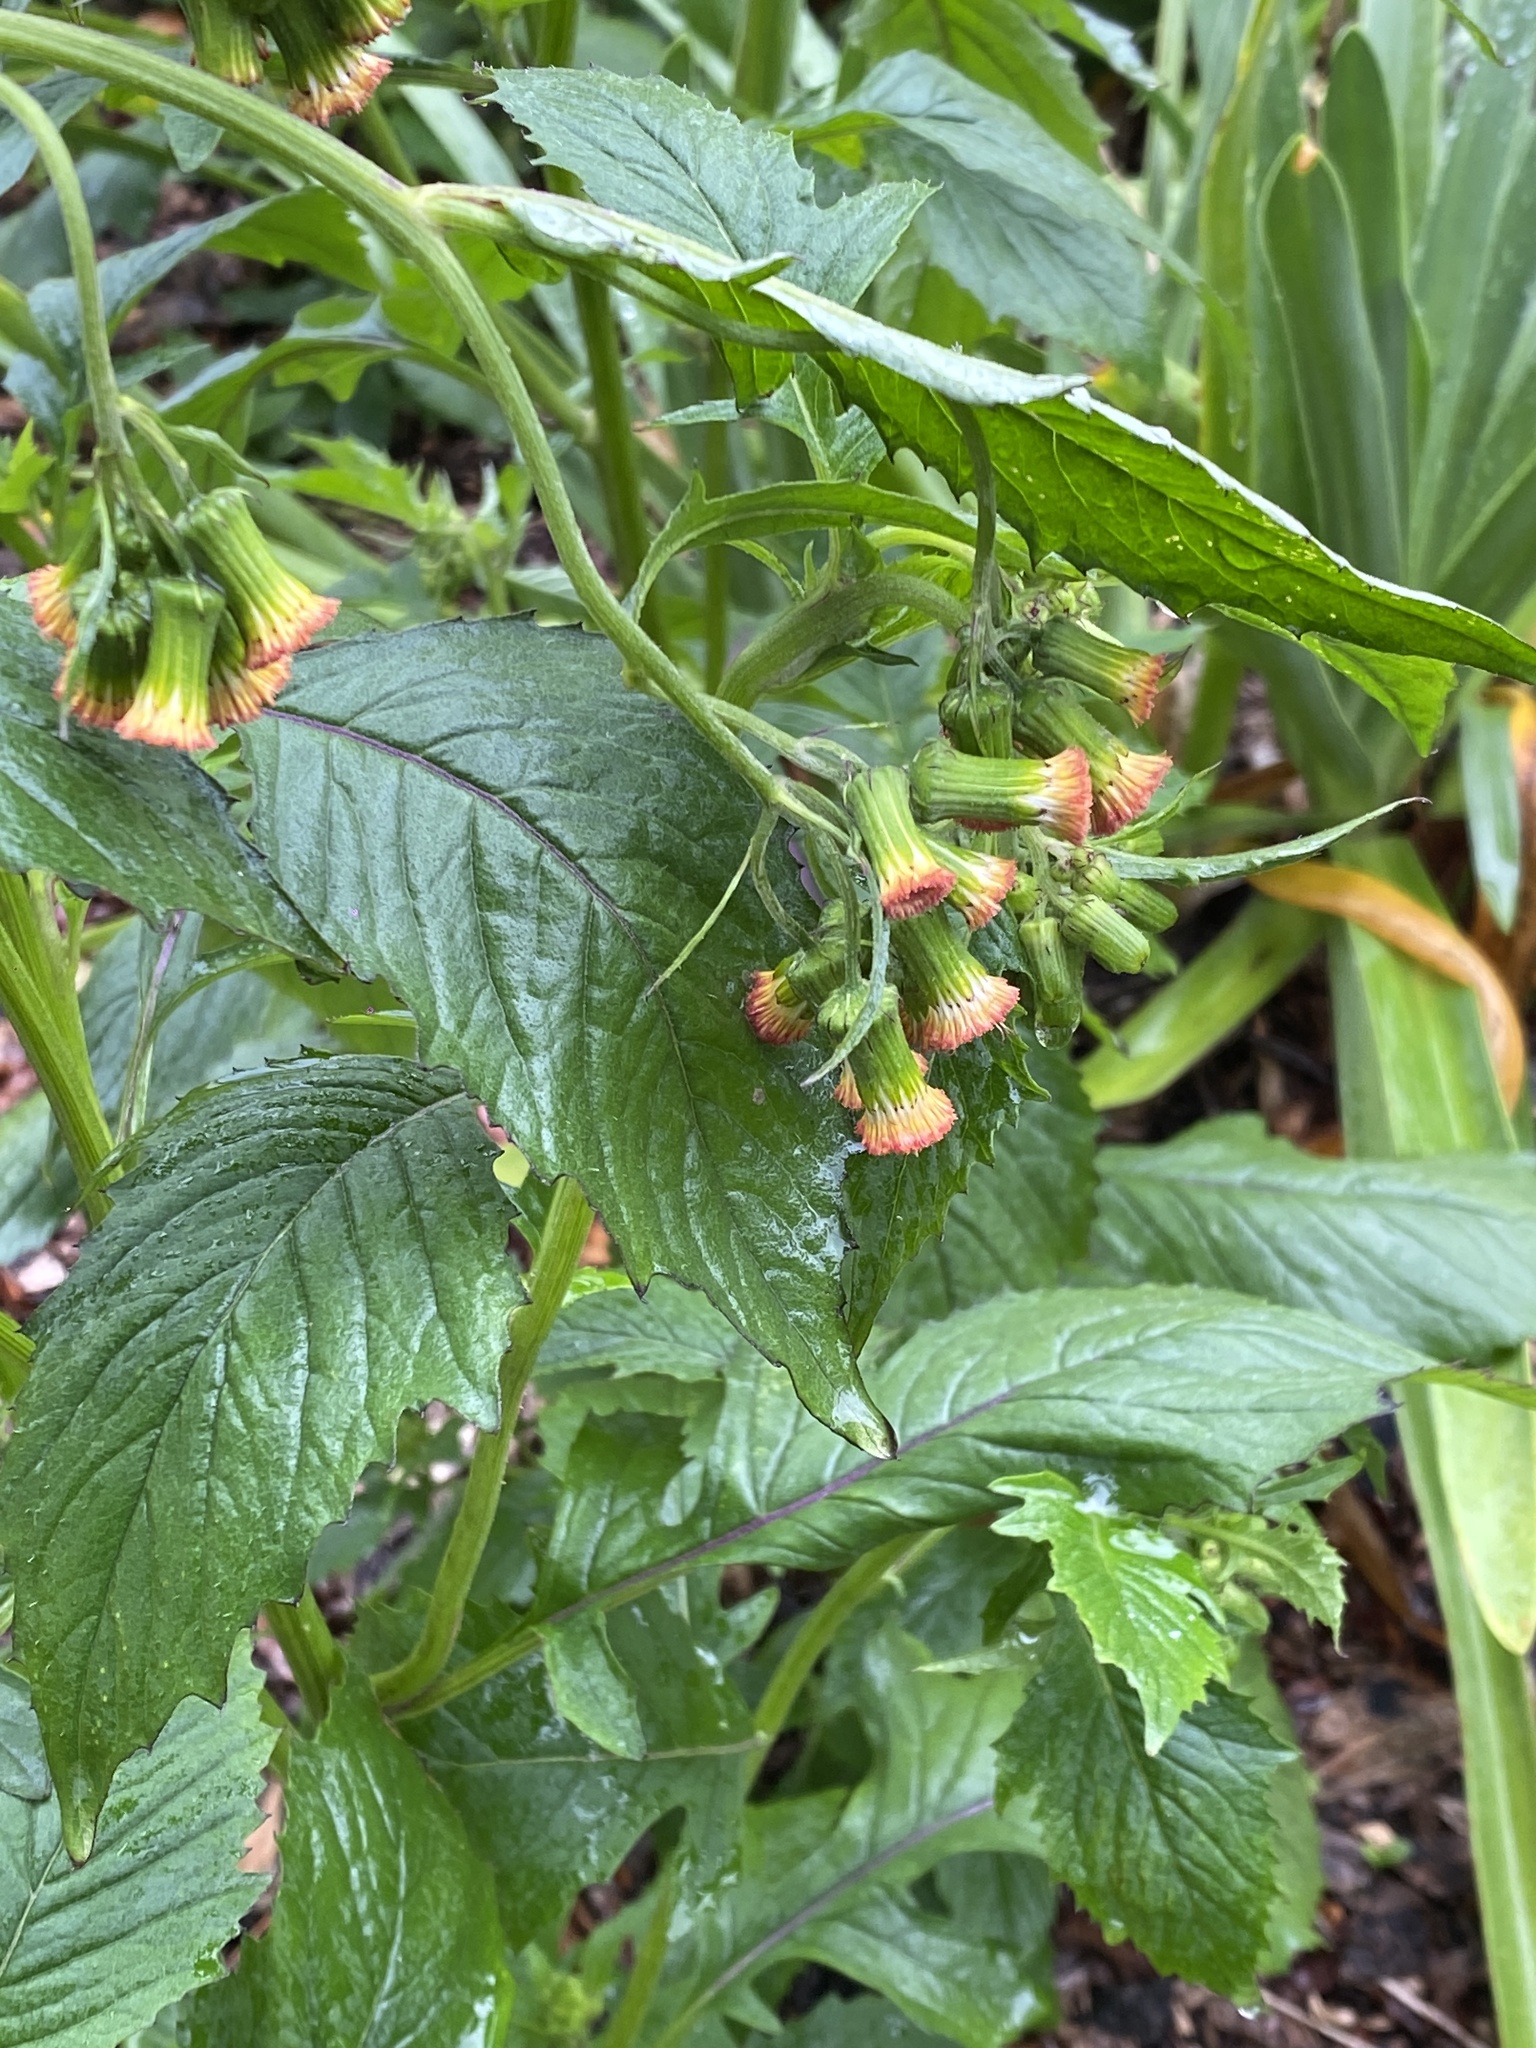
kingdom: Plantae
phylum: Tracheophyta
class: Magnoliopsida
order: Asterales
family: Asteraceae
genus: Crassocephalum
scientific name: Crassocephalum crepidioides
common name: Redflower ragleaf
